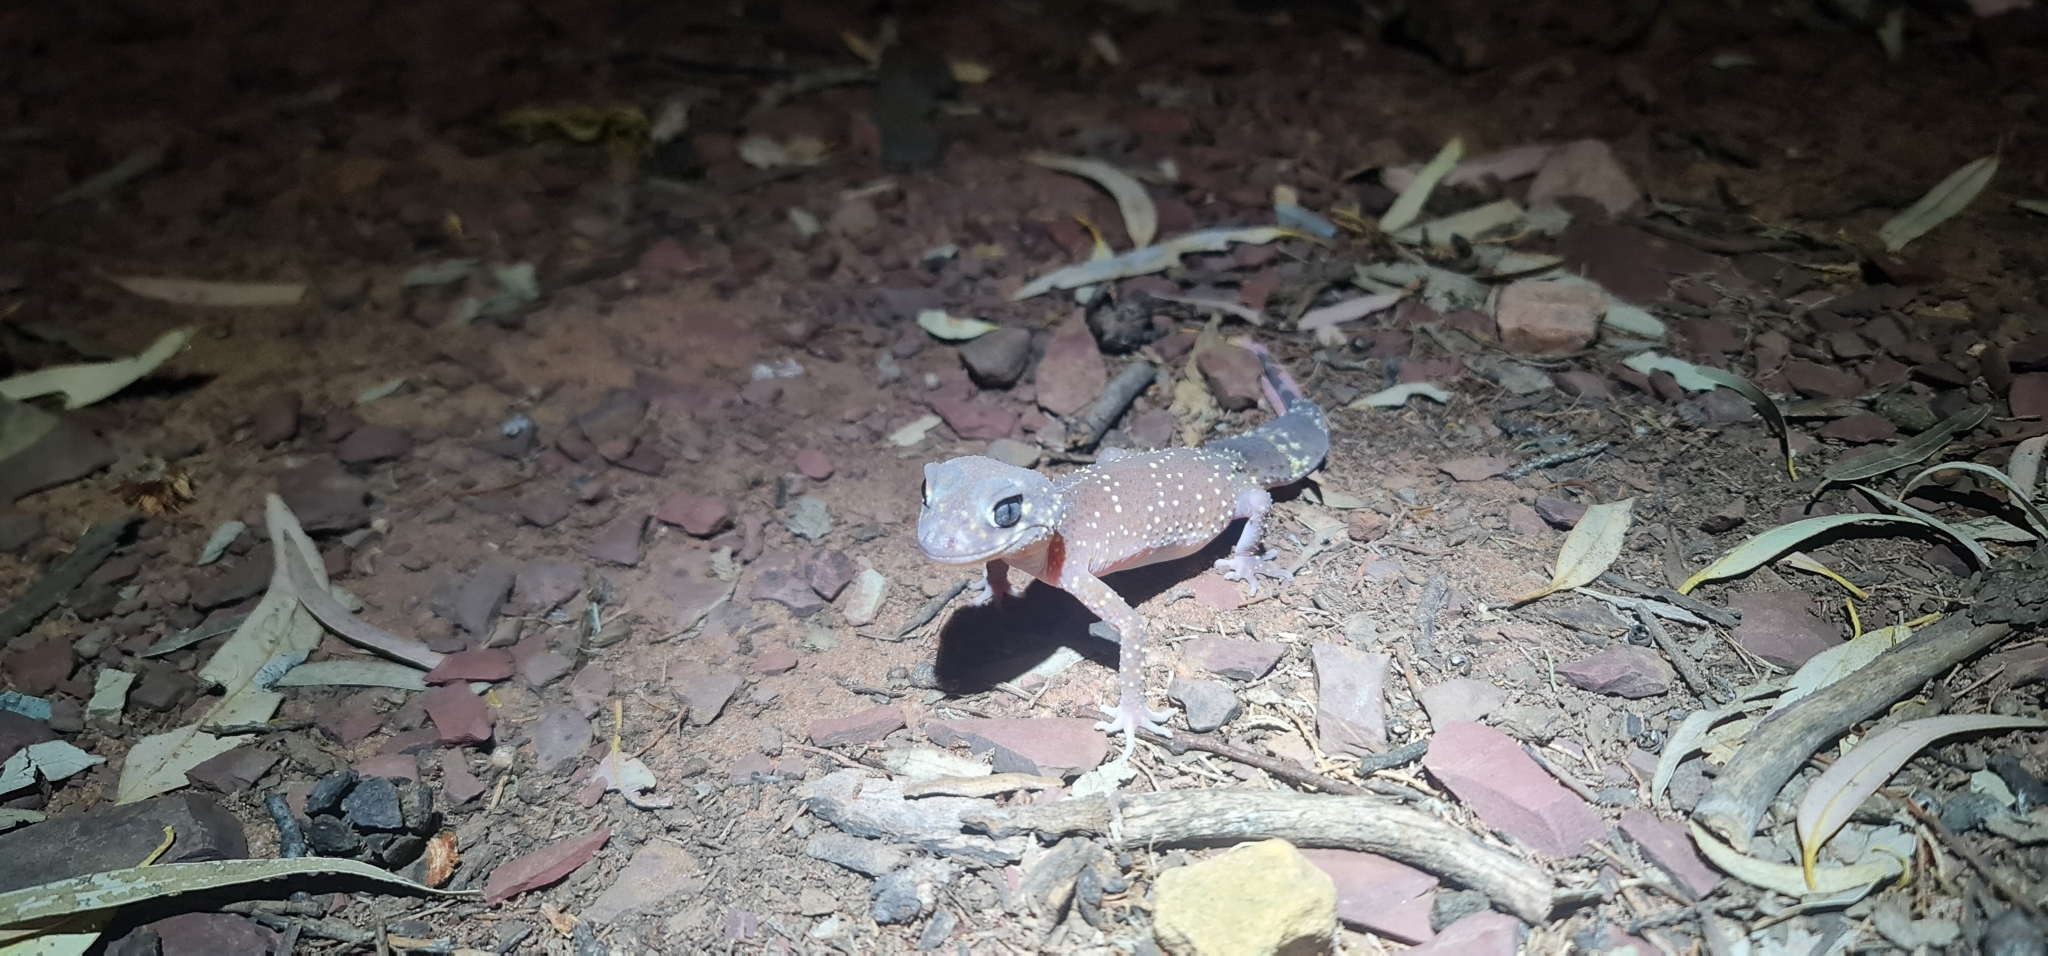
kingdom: Animalia
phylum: Chordata
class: Squamata
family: Carphodactylidae
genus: Underwoodisaurus
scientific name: Underwoodisaurus milii
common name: Barking gecko
